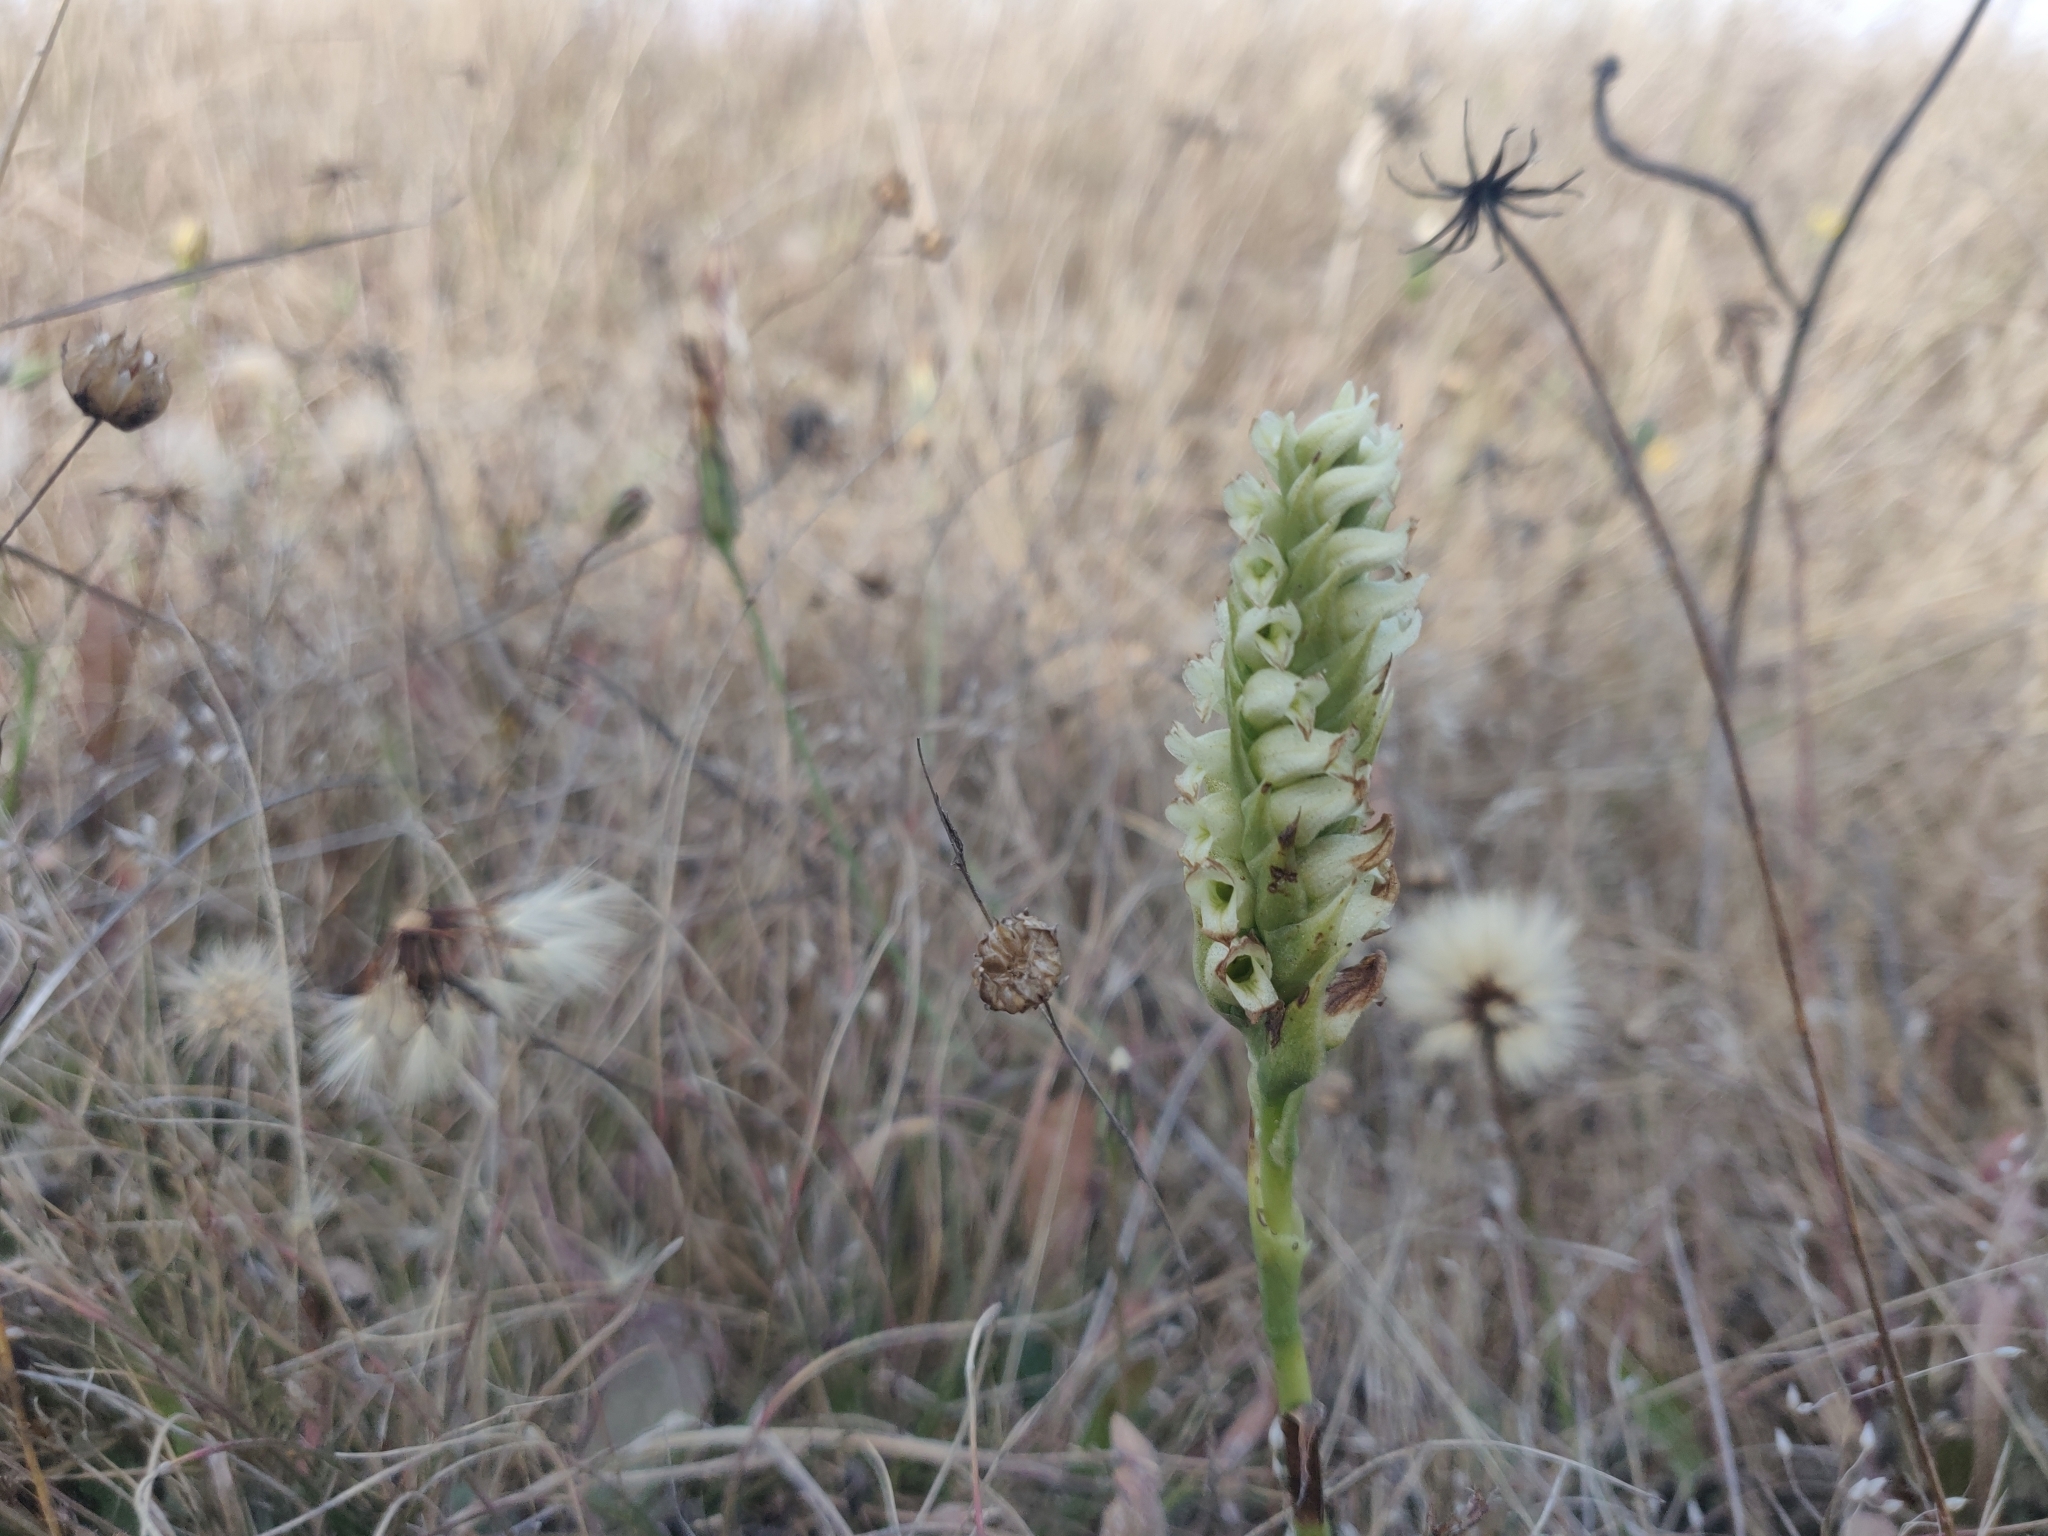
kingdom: Plantae
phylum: Tracheophyta
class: Liliopsida
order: Asparagales
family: Orchidaceae
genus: Spiranthes
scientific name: Spiranthes romanzoffiana
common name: Irish lady's-tresses
